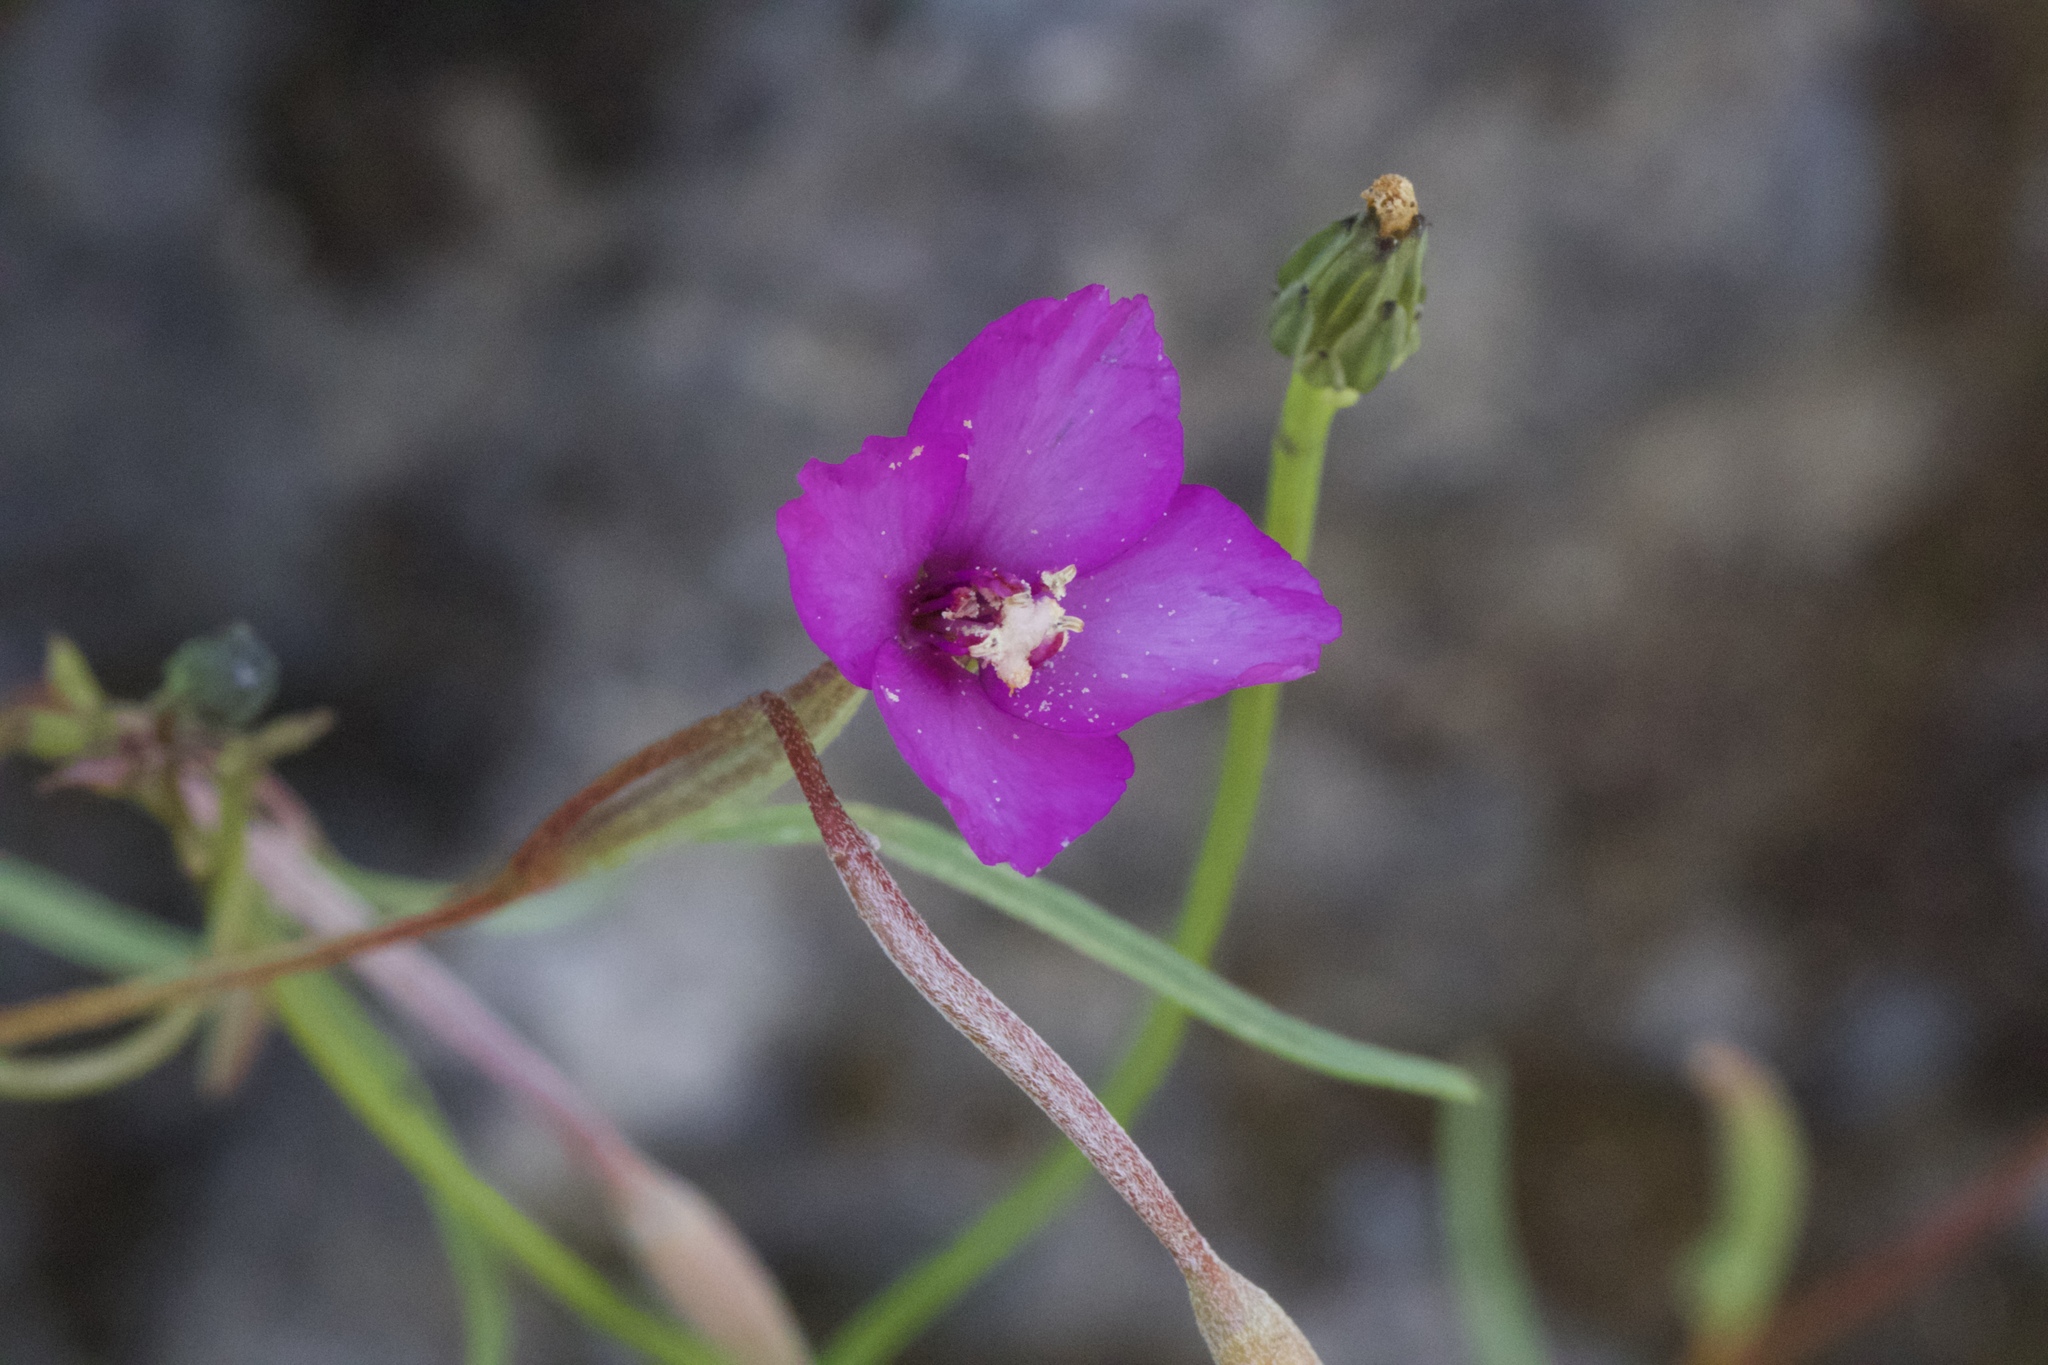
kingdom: Plantae
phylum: Tracheophyta
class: Magnoliopsida
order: Myrtales
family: Onagraceae
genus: Clarkia
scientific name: Clarkia gracilis
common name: Graceful clarkia
